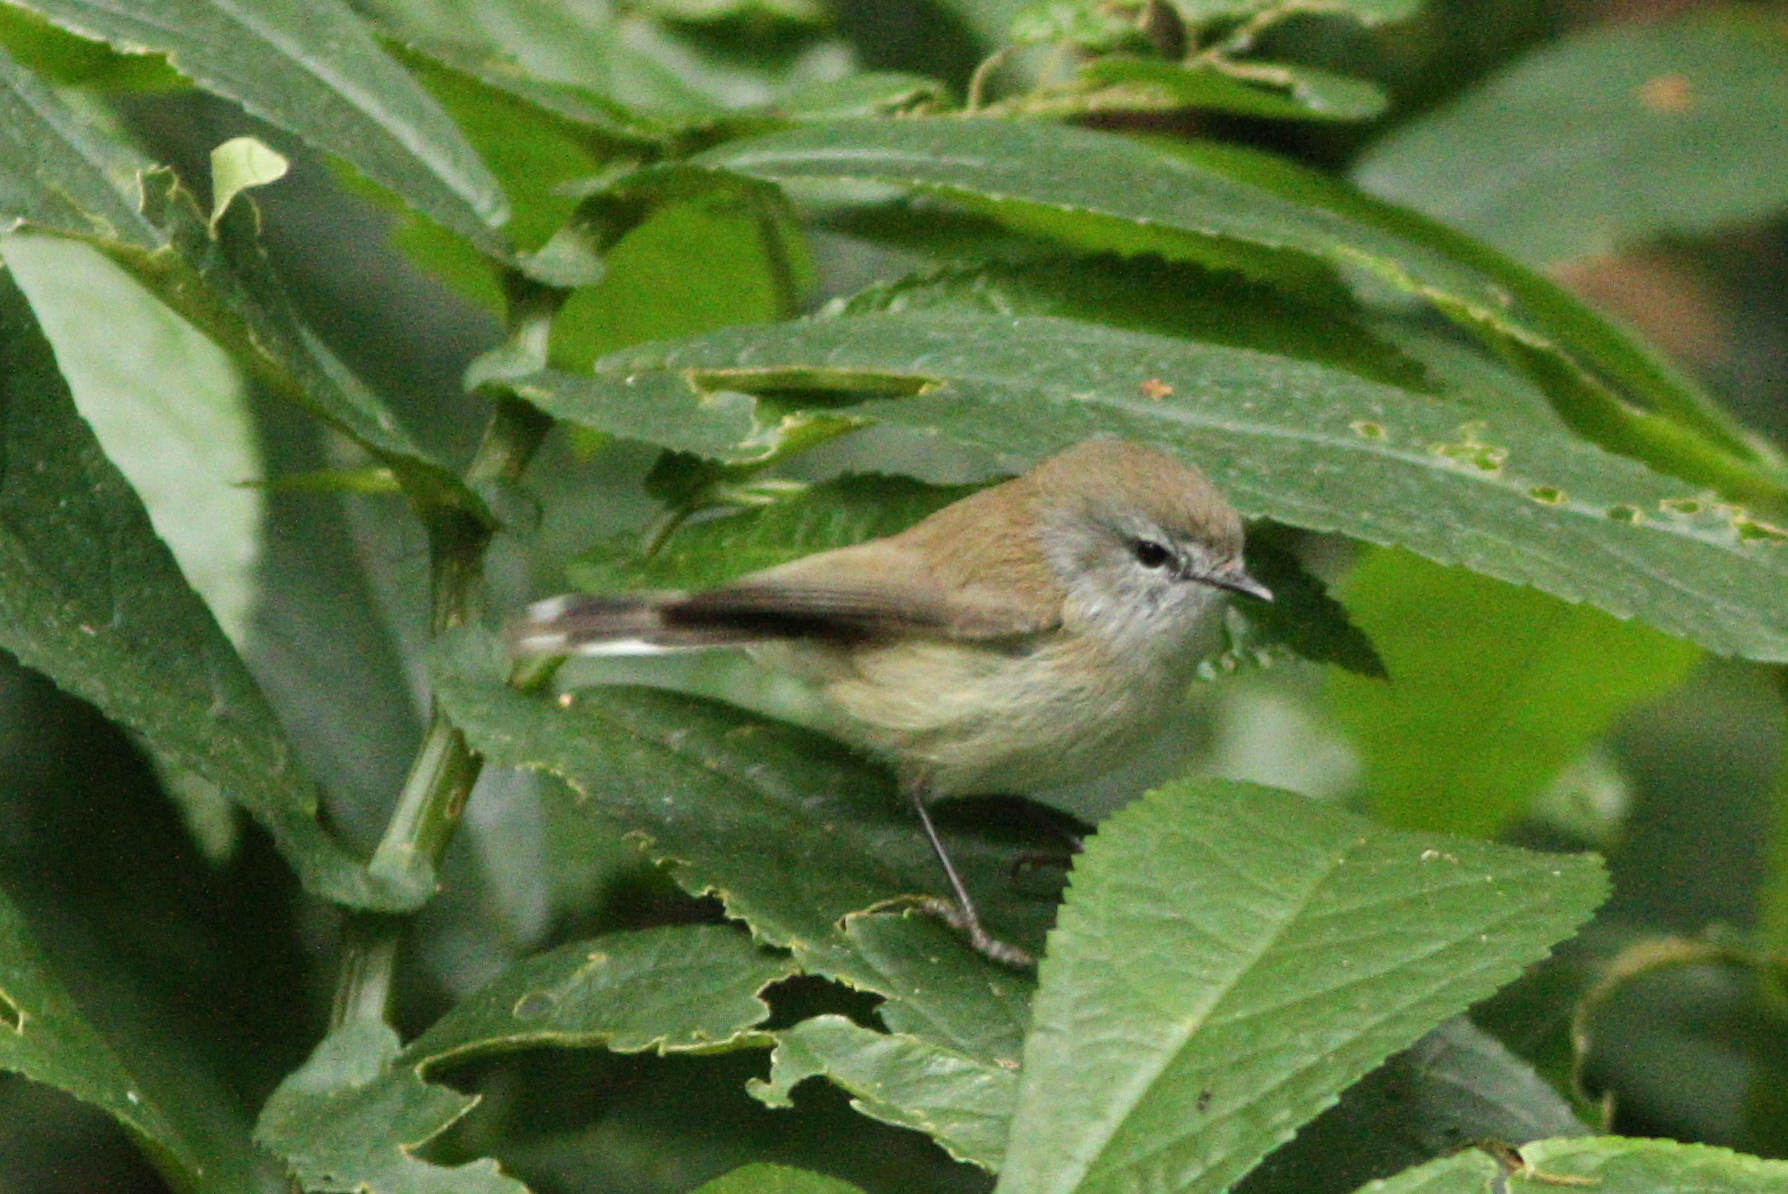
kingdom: Animalia
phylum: Chordata
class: Aves
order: Passeriformes
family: Acanthizidae
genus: Gerygone
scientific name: Gerygone mouki
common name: Brown gerygone
